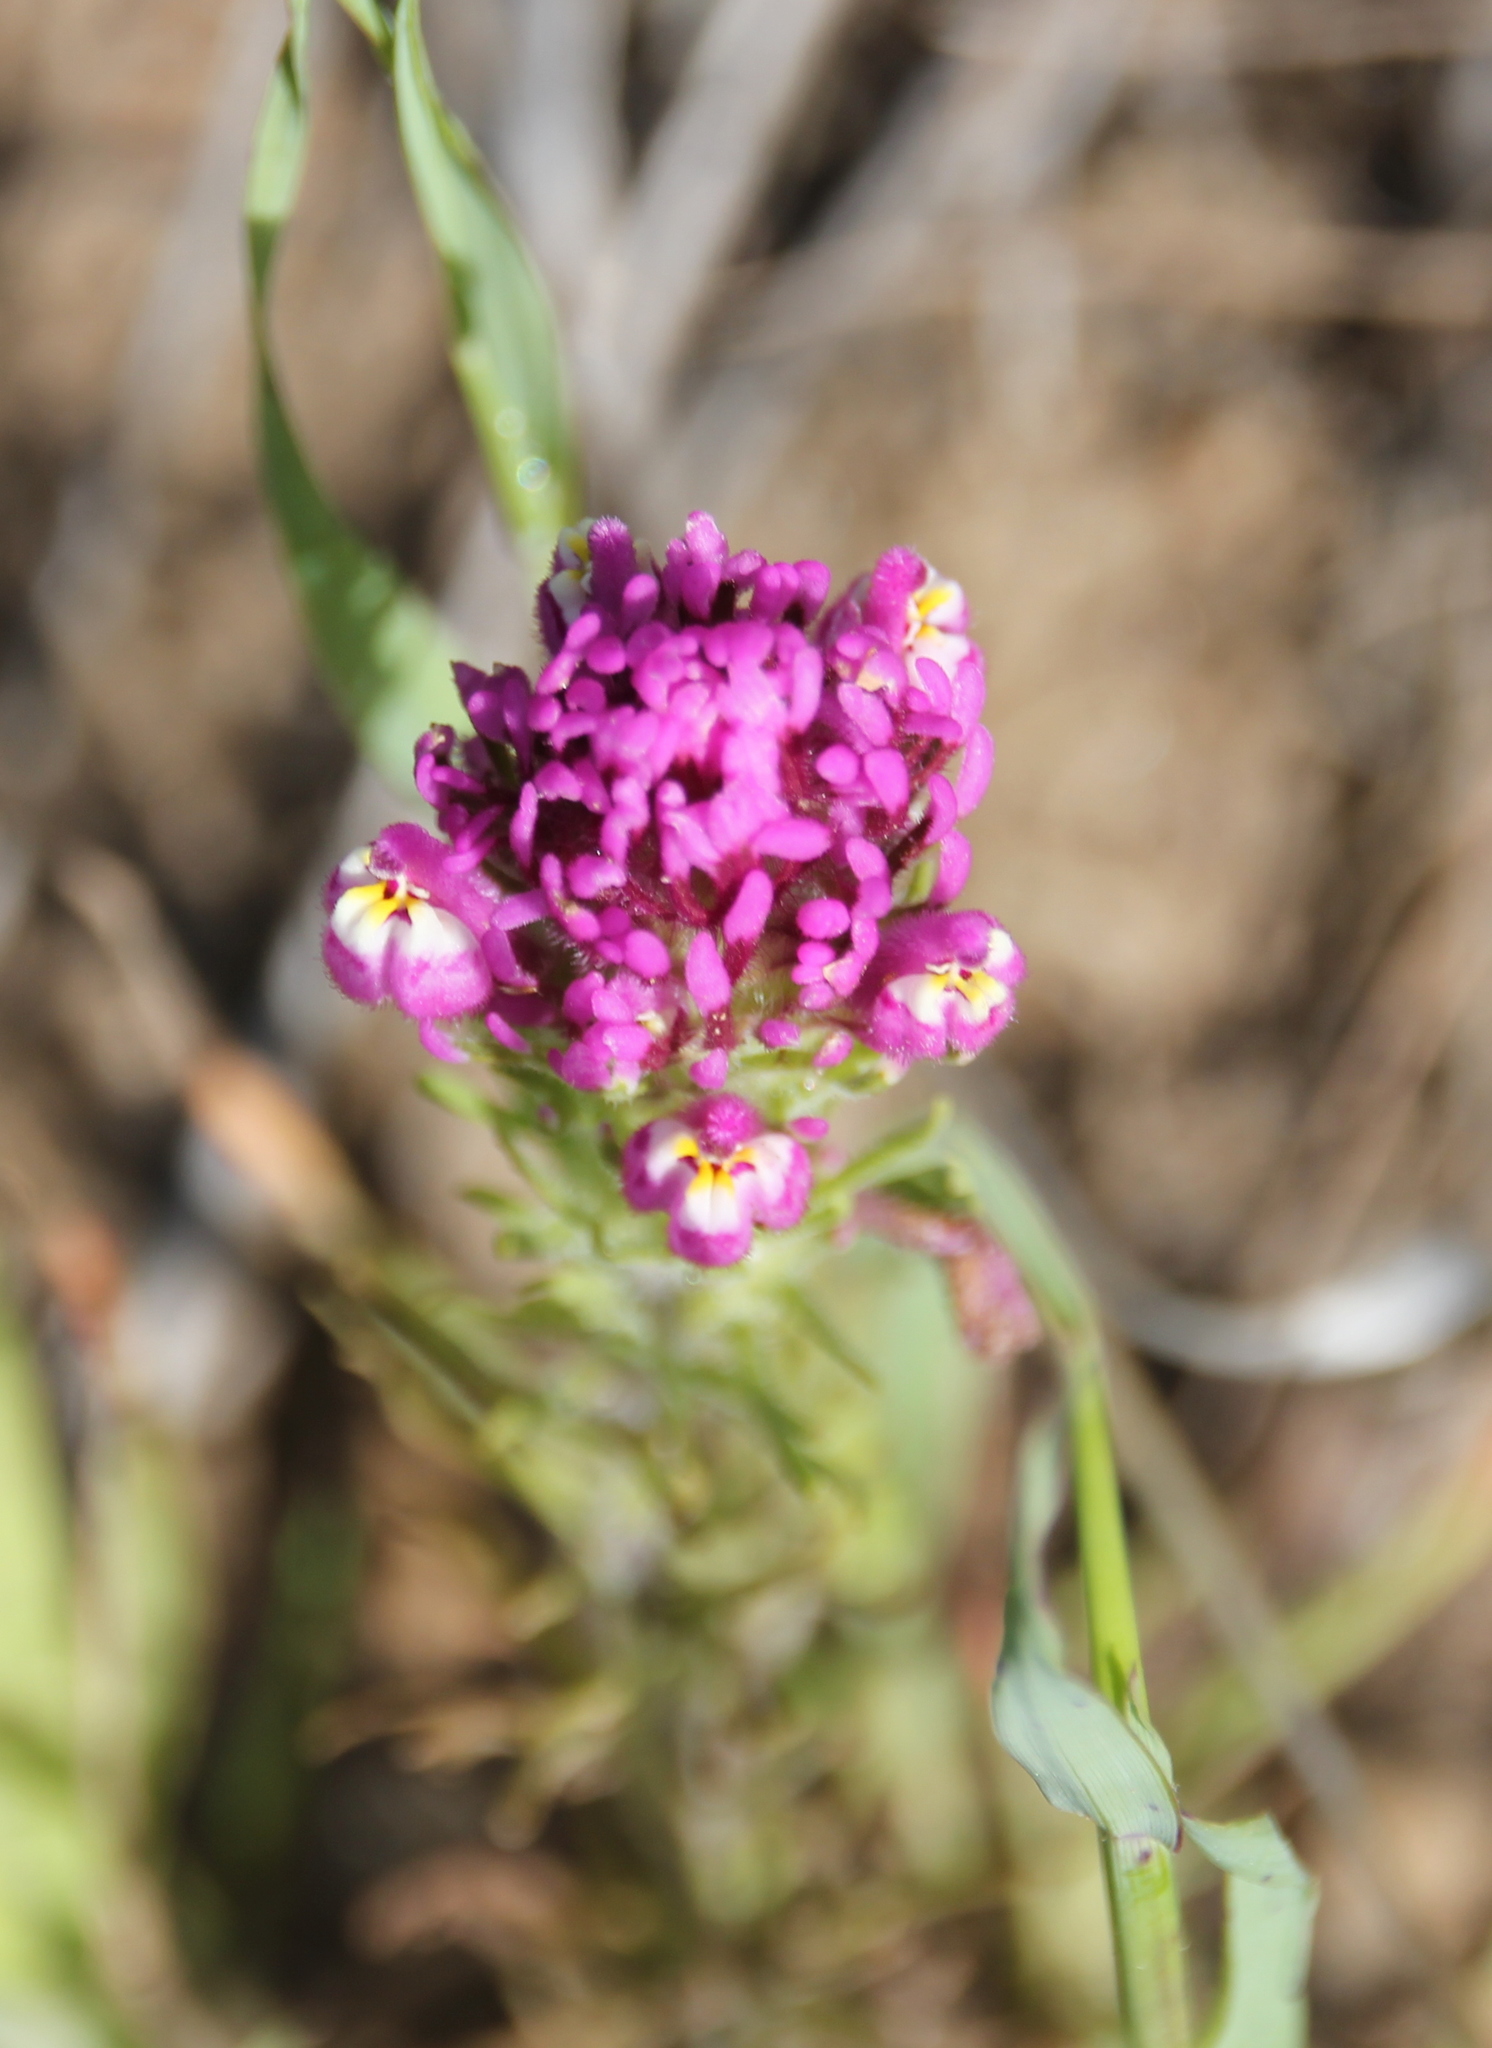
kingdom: Plantae
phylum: Tracheophyta
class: Magnoliopsida
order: Lamiales
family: Orobanchaceae
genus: Castilleja
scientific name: Castilleja exserta
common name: Purple owl-clover
